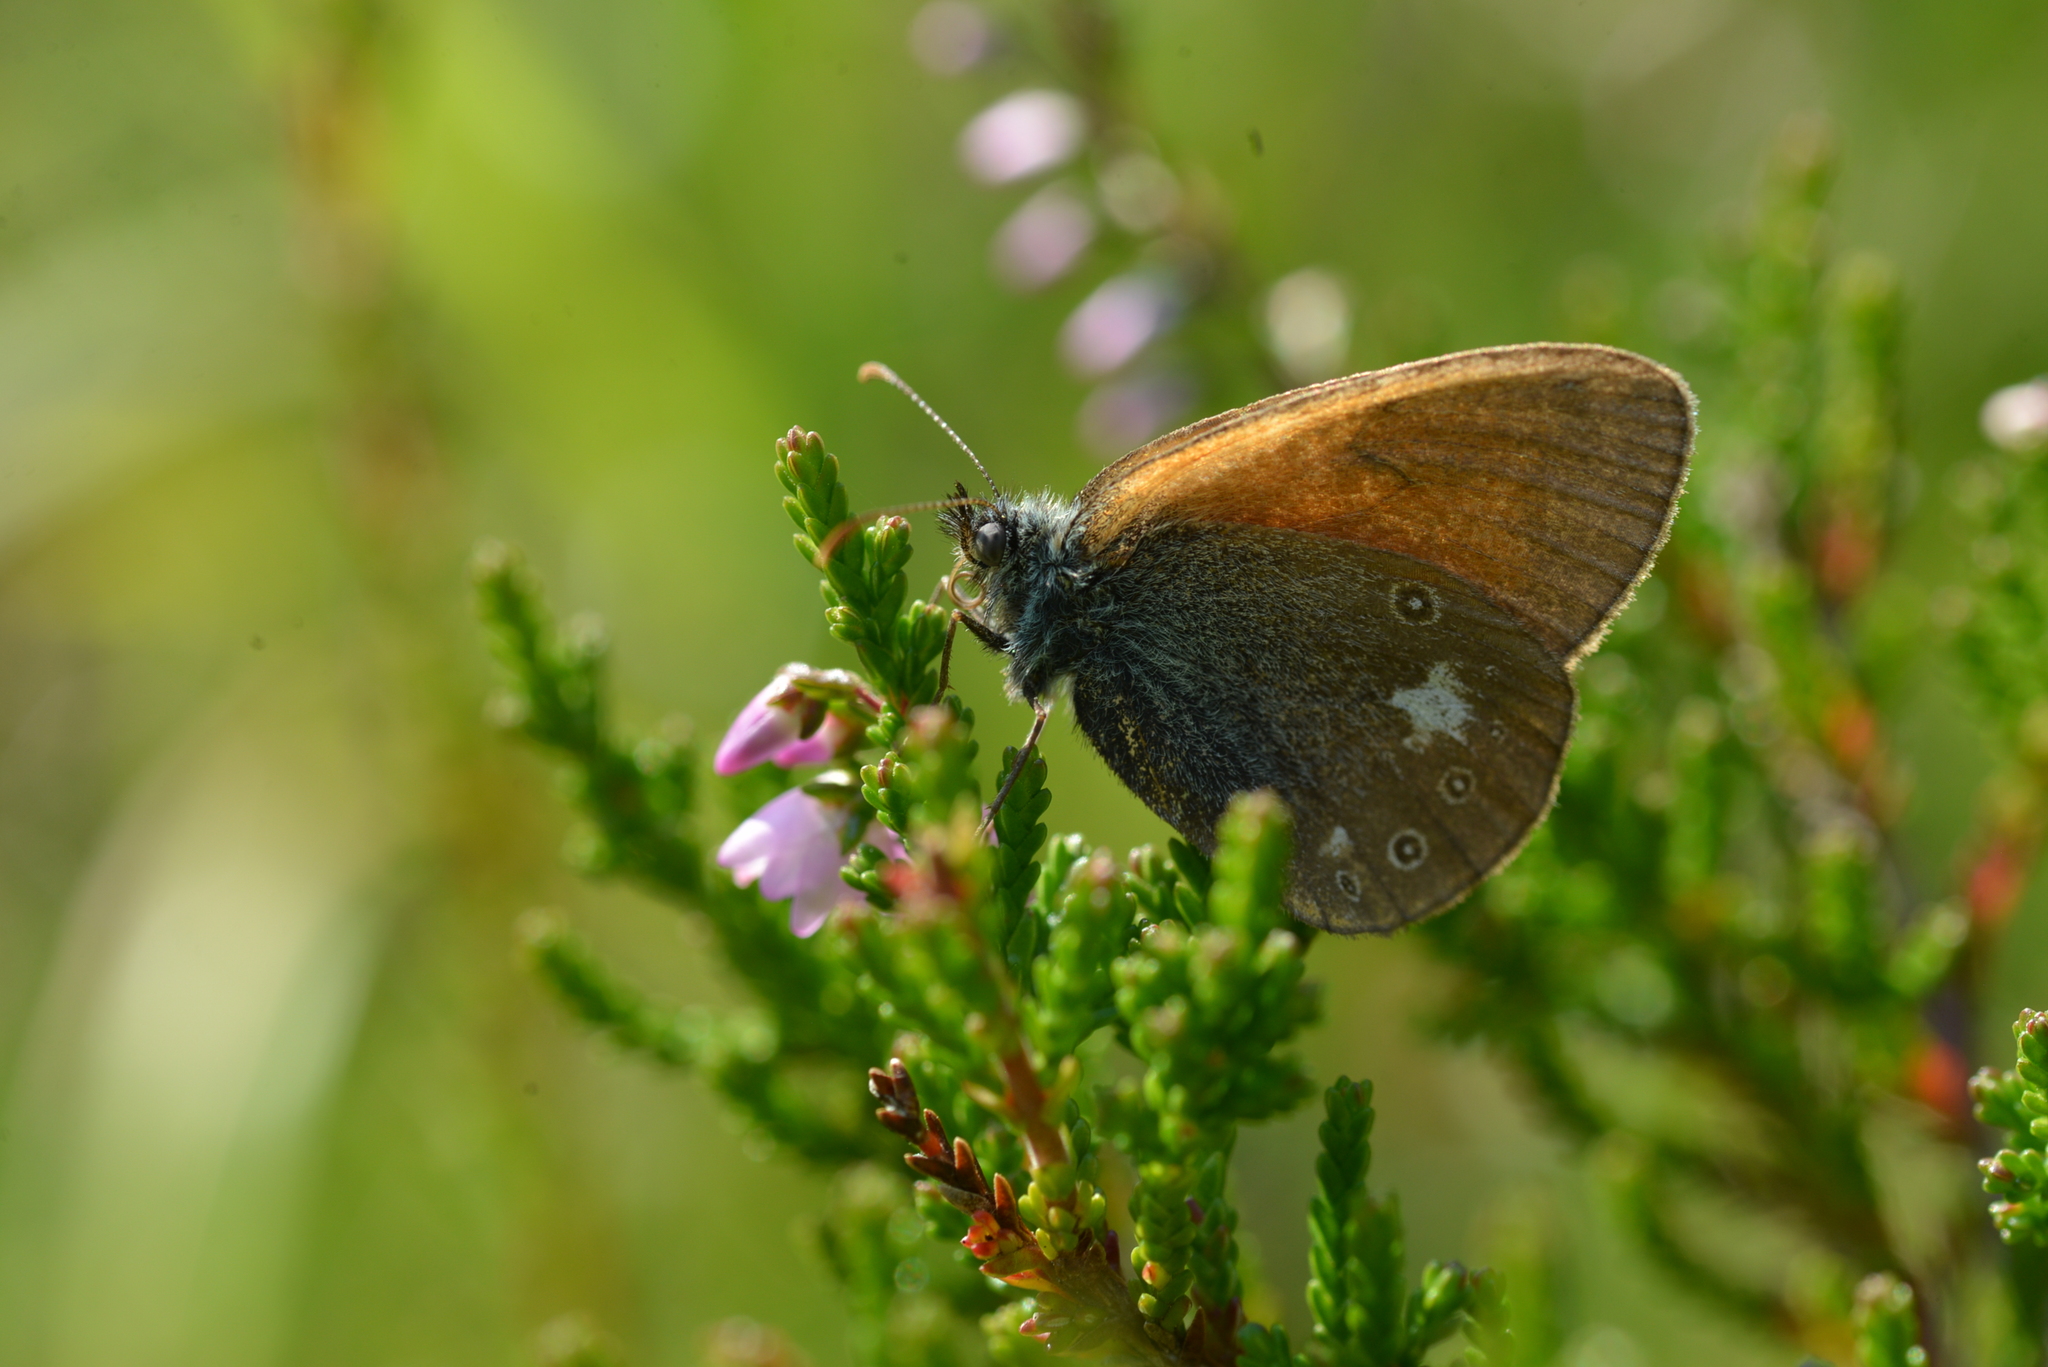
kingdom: Animalia
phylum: Arthropoda
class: Insecta
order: Lepidoptera
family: Nymphalidae
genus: Coenonympha
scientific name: Coenonympha iphis
